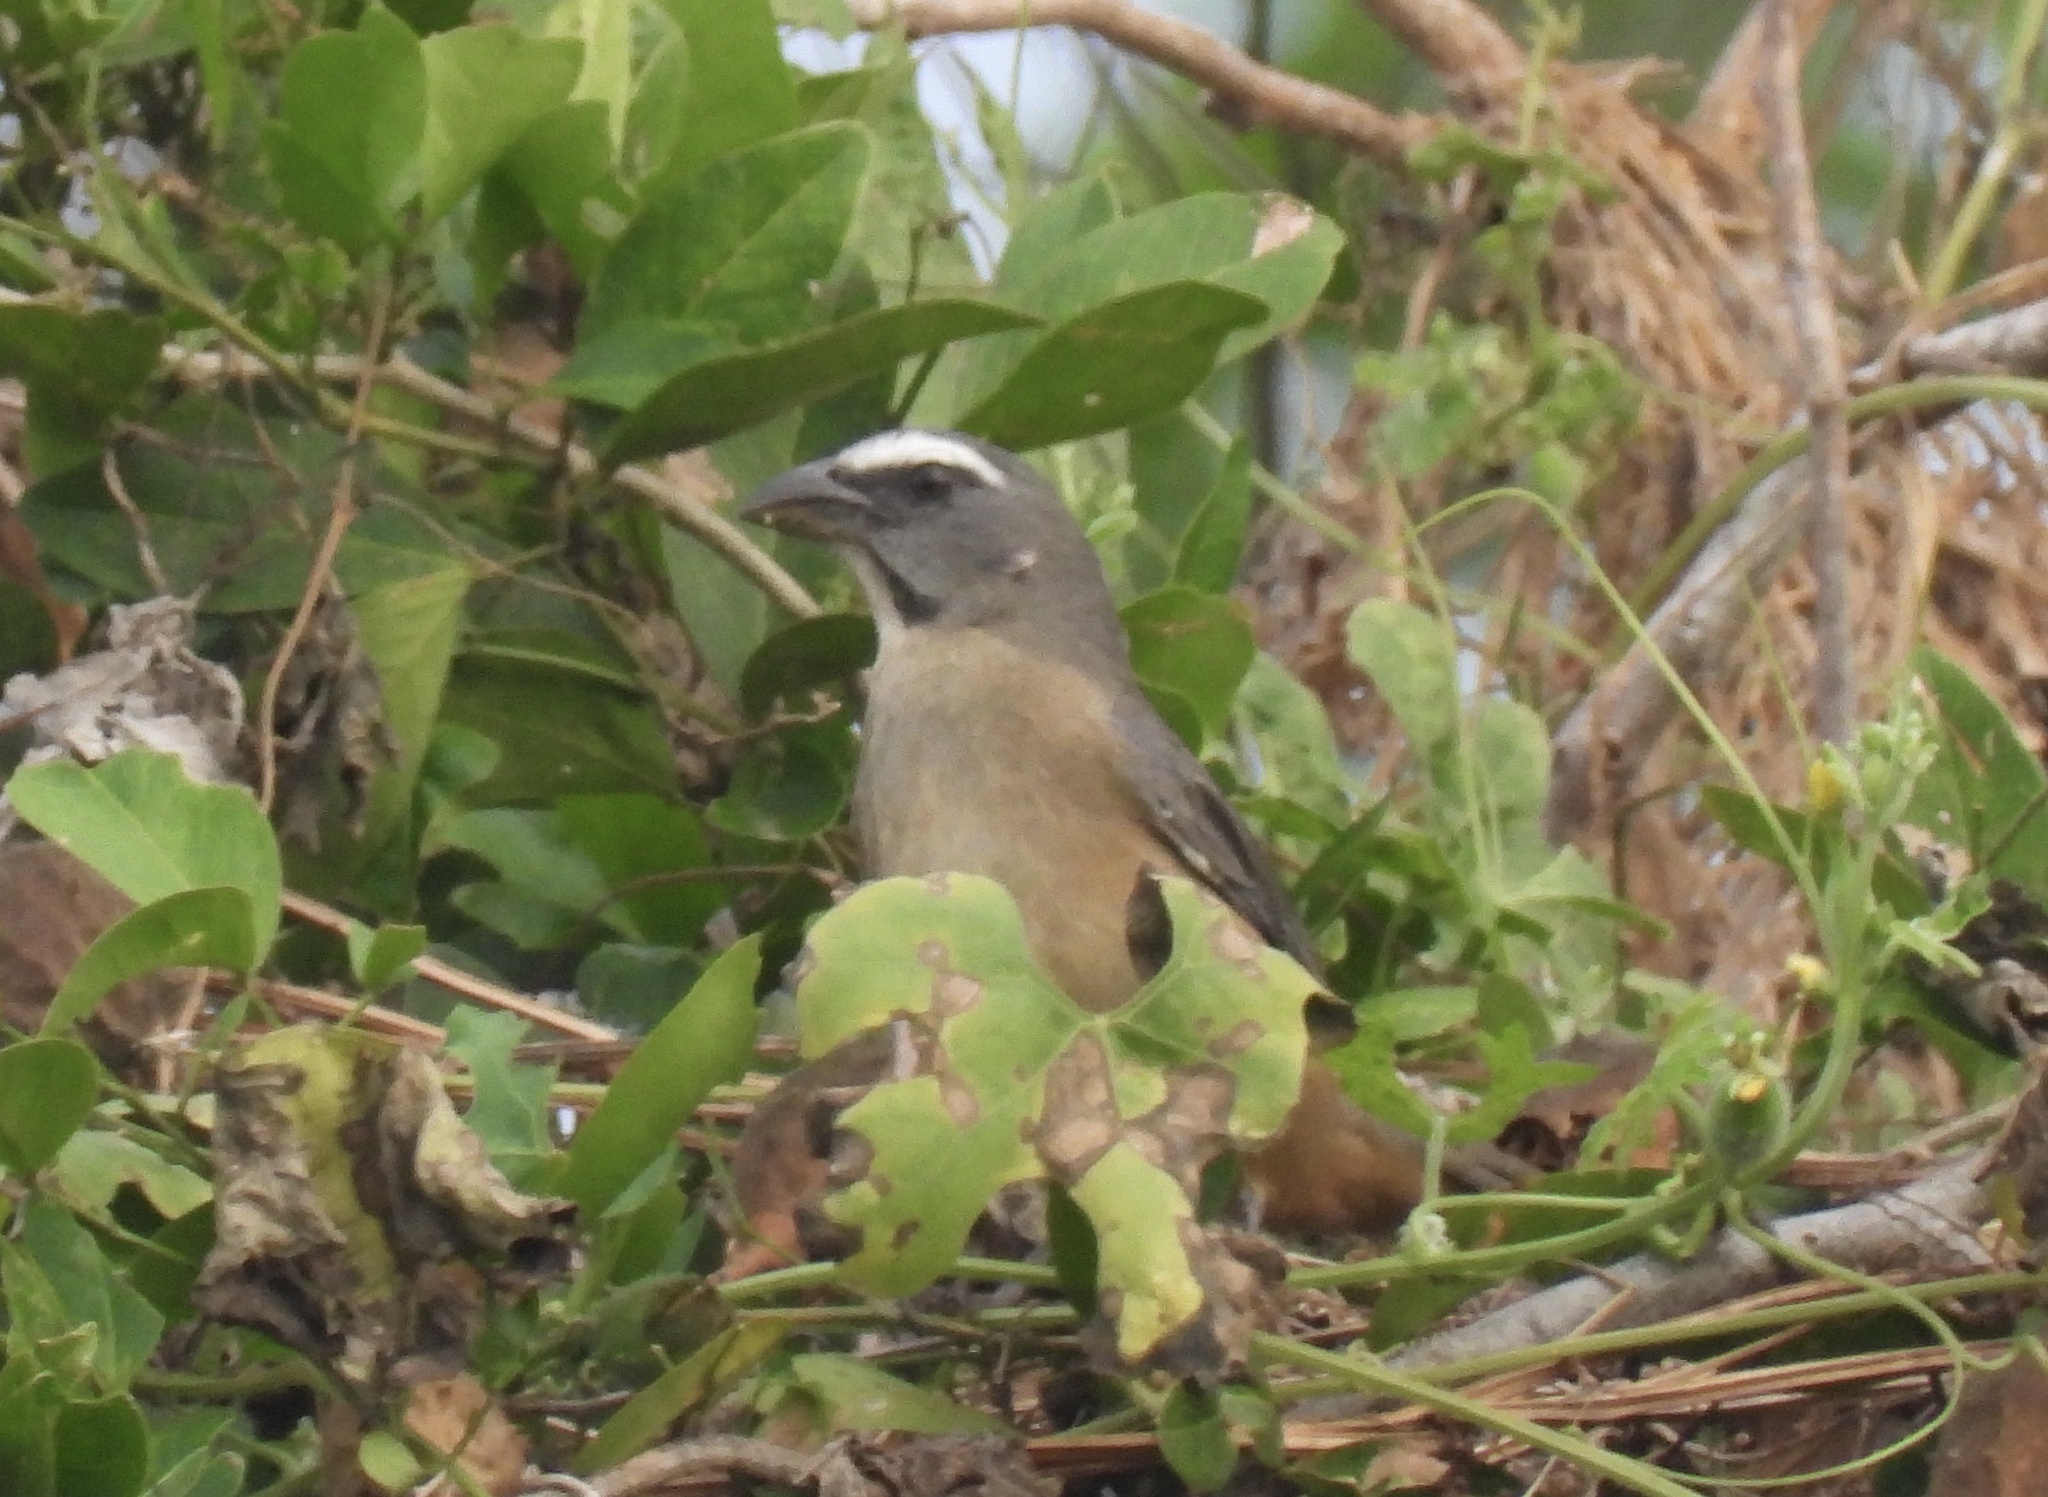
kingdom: Animalia
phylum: Chordata
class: Aves
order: Passeriformes
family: Thraupidae
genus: Saltator
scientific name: Saltator grandis
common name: Cinnamon-bellied saltator
